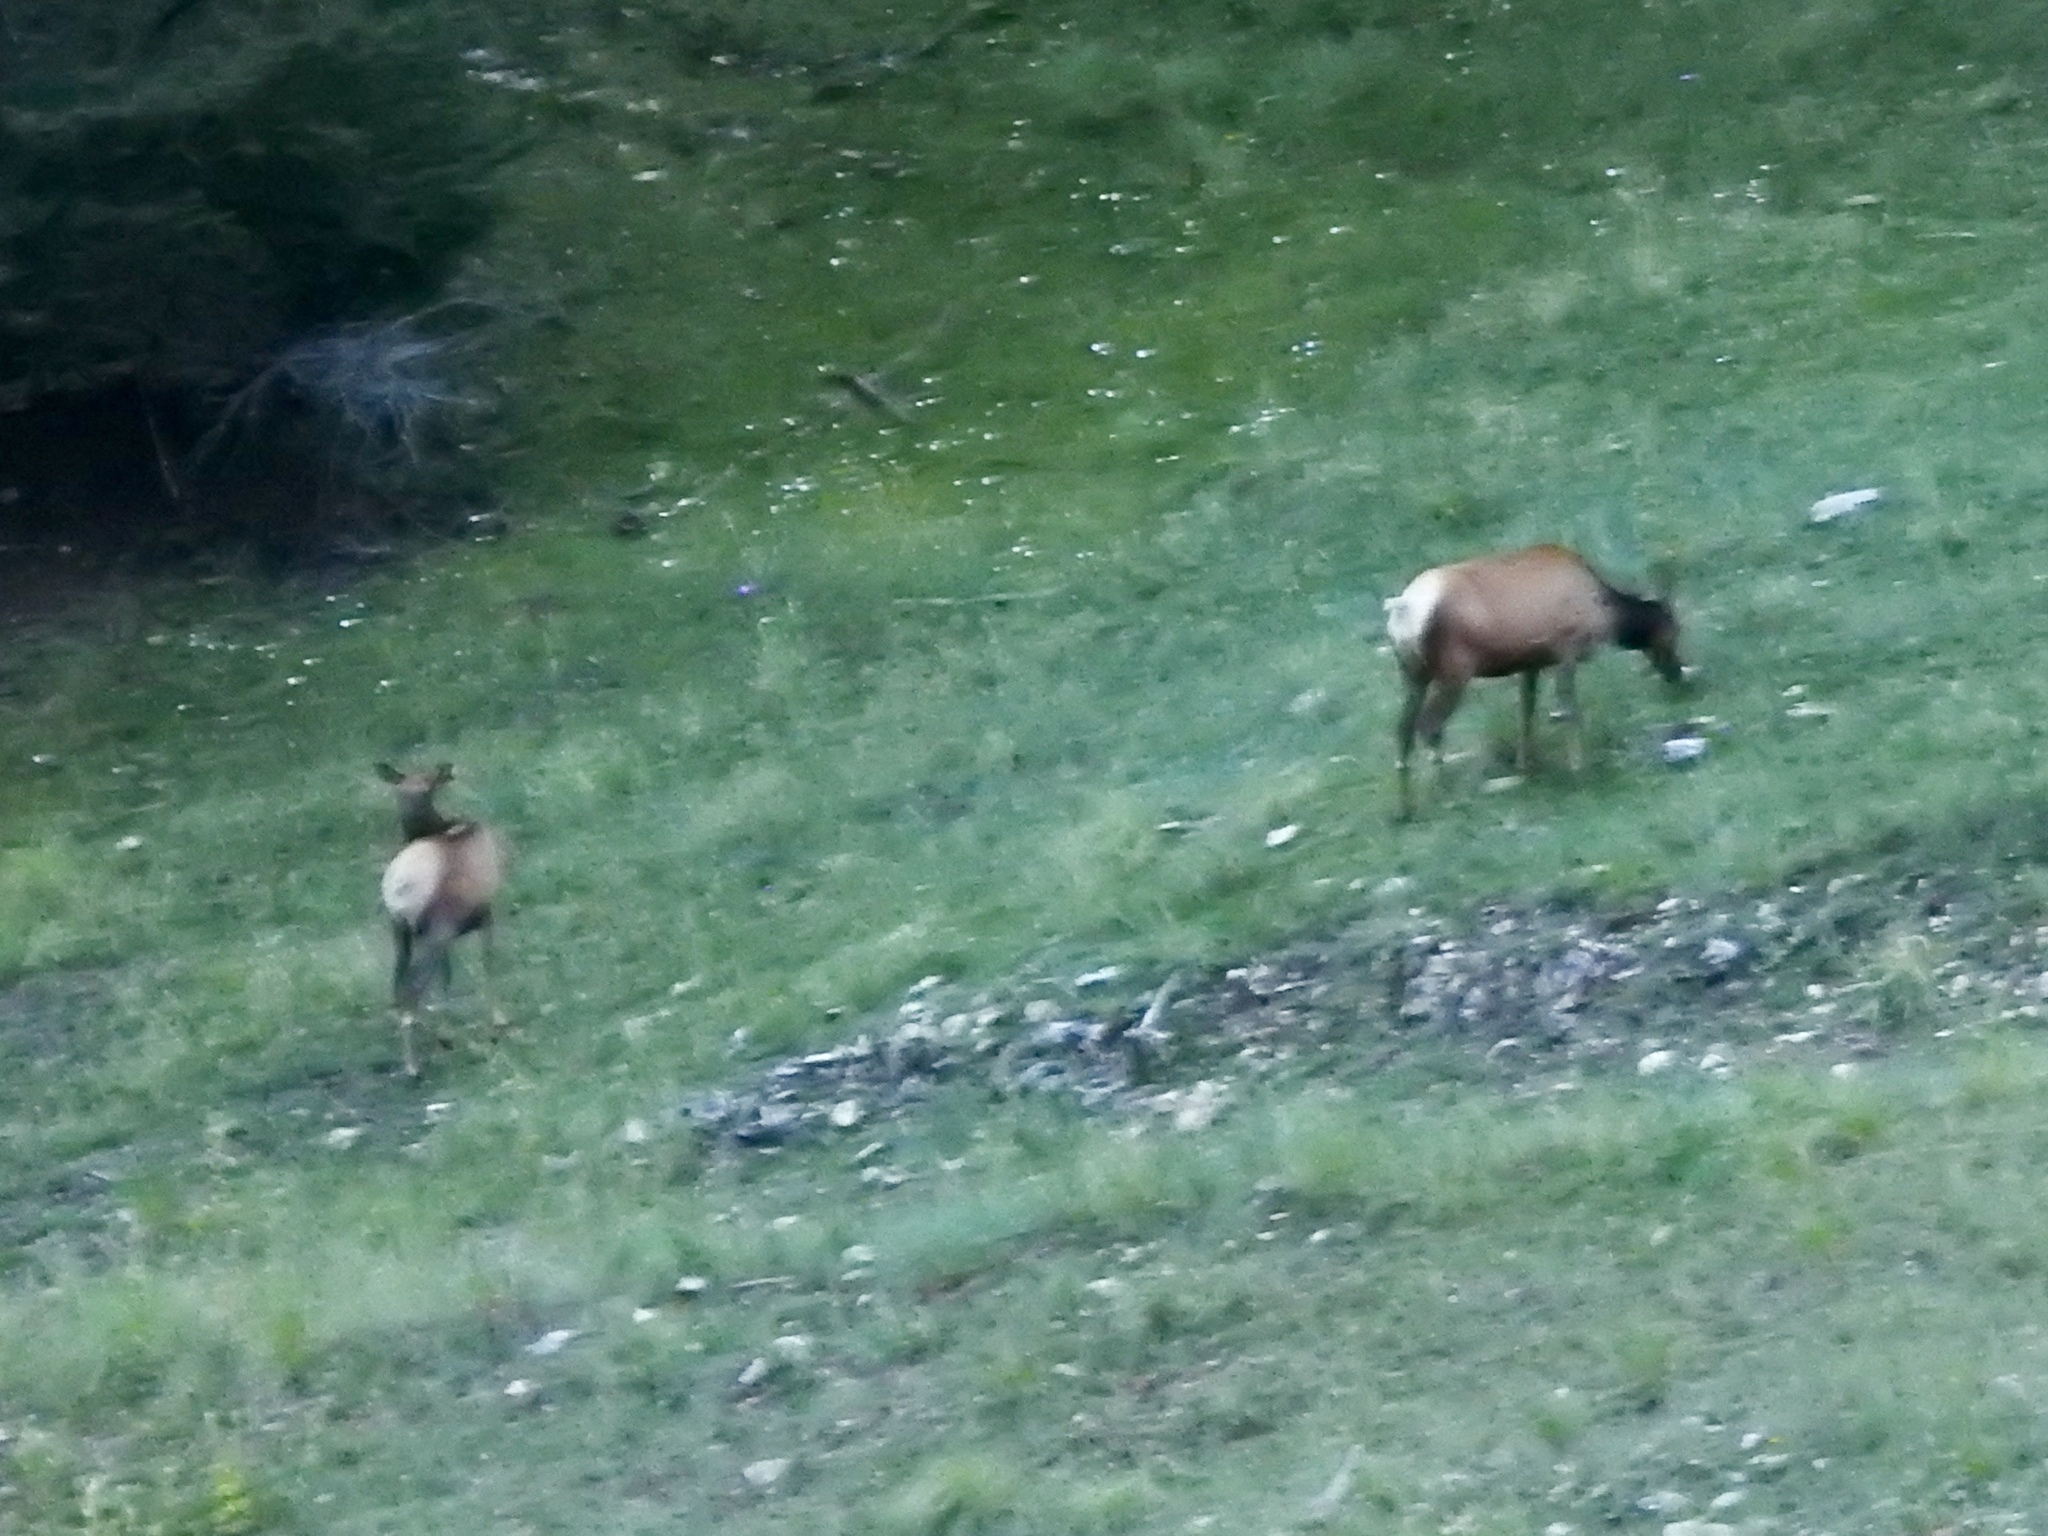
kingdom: Animalia
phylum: Chordata
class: Mammalia
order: Artiodactyla
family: Cervidae
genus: Cervus
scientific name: Cervus elaphus
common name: Red deer
